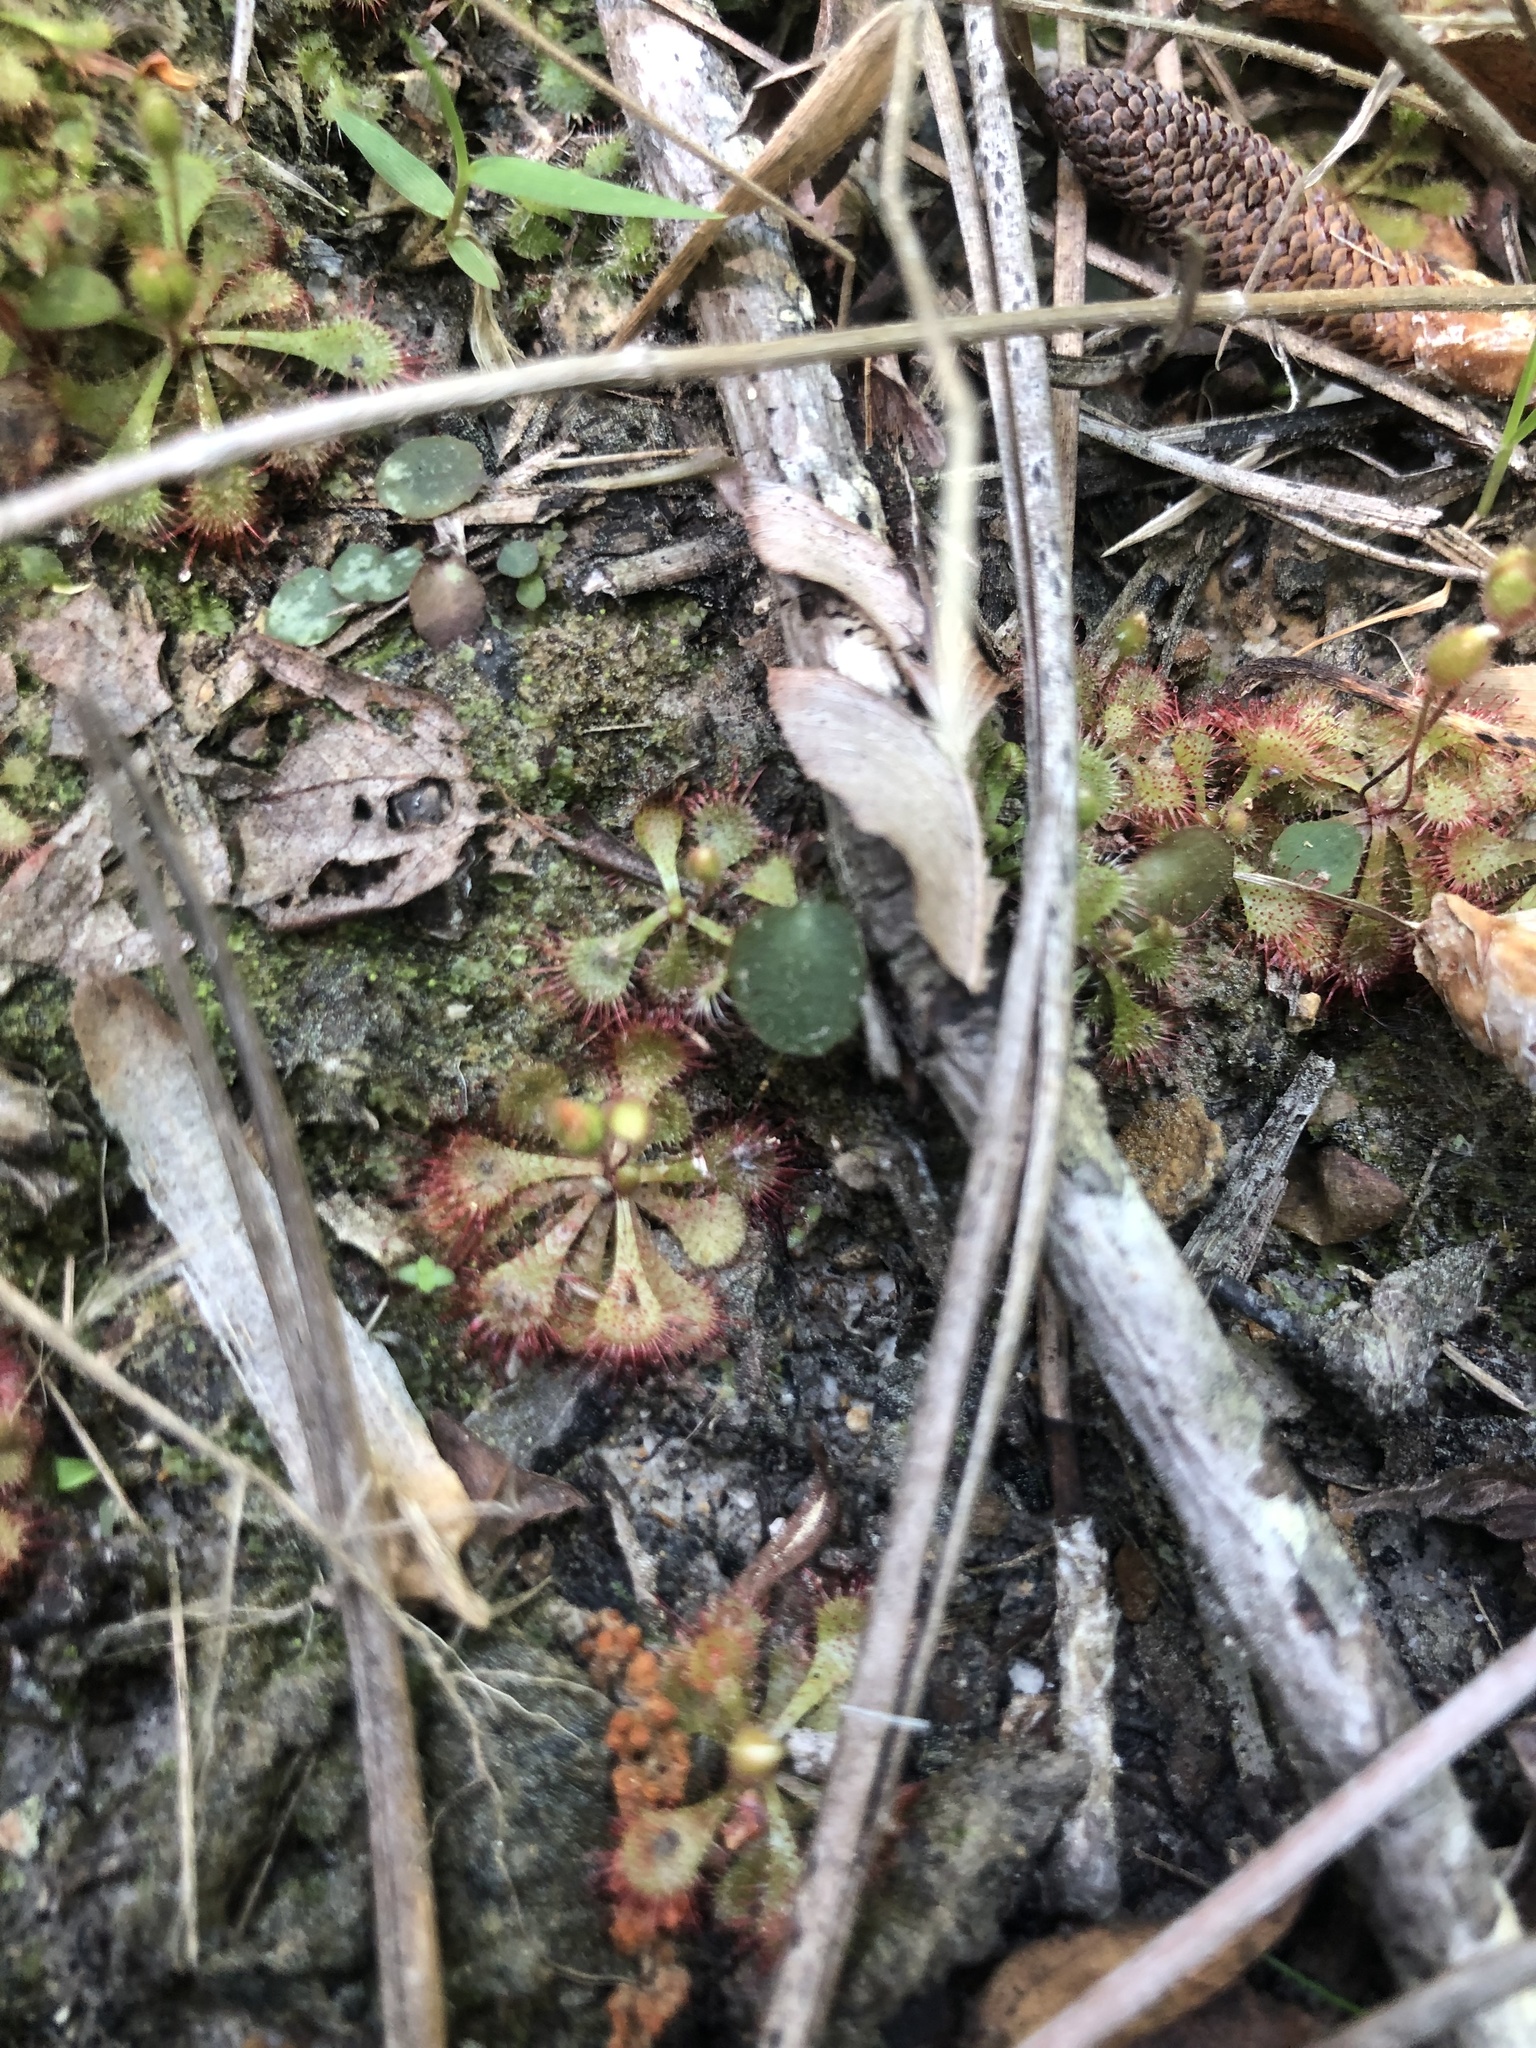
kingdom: Plantae
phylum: Tracheophyta
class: Magnoliopsida
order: Caryophyllales
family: Droseraceae
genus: Drosera
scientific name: Drosera brevifolia
